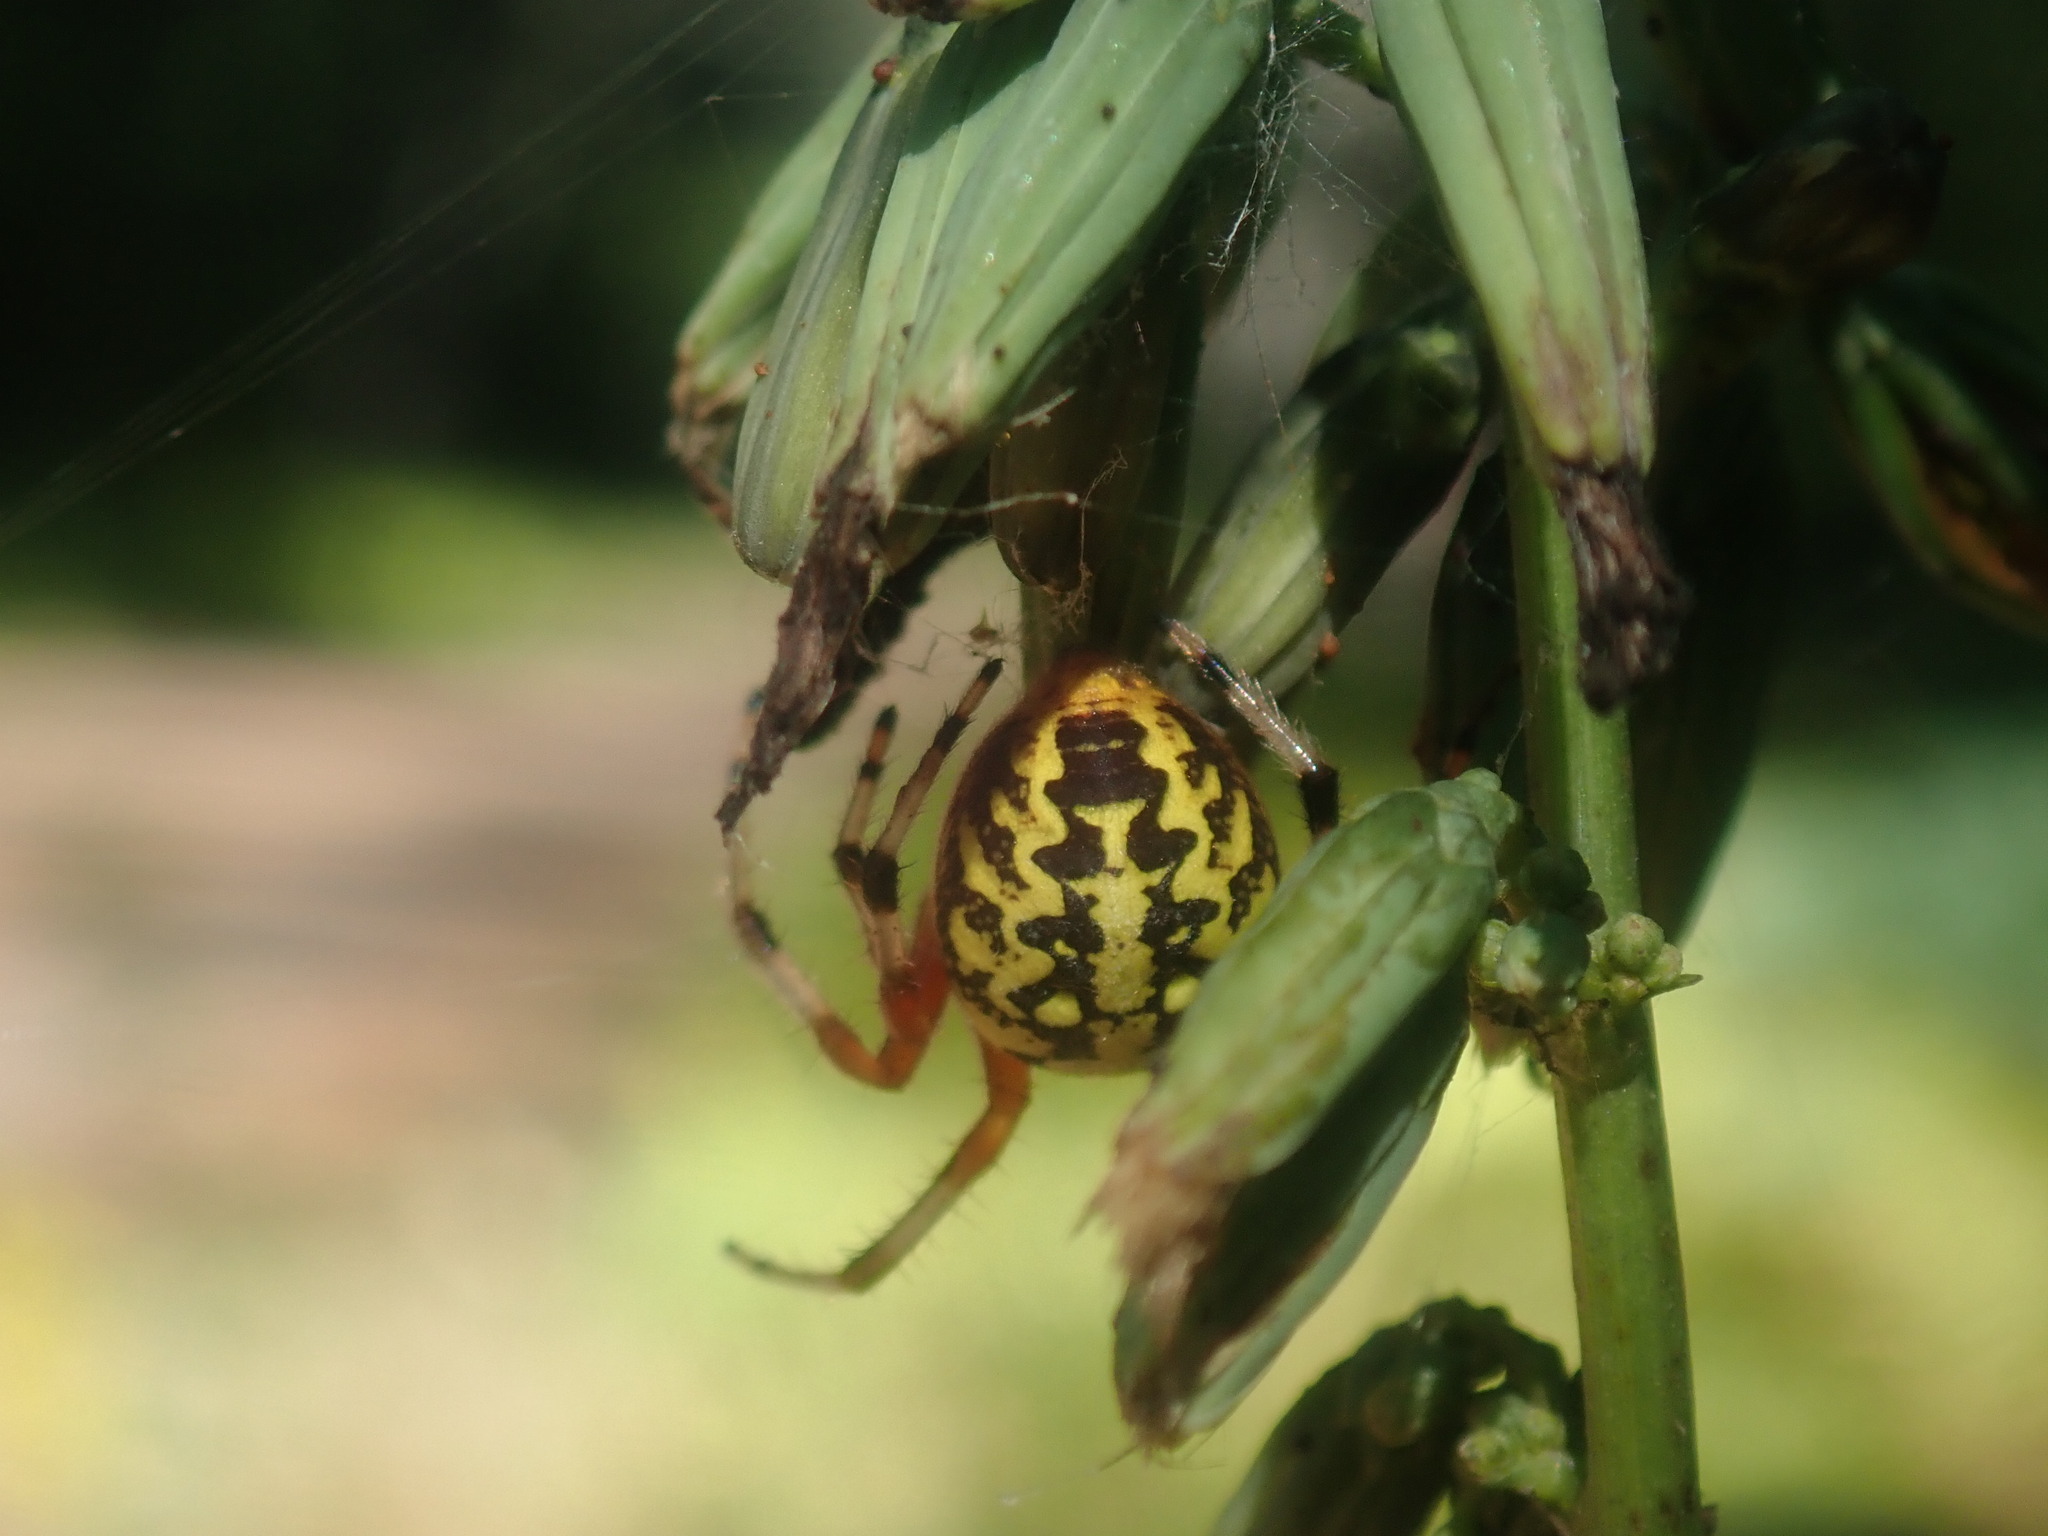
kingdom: Animalia
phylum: Arthropoda
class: Arachnida
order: Araneae
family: Araneidae
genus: Araneus
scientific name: Araneus marmoreus
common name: Marbled orbweaver
